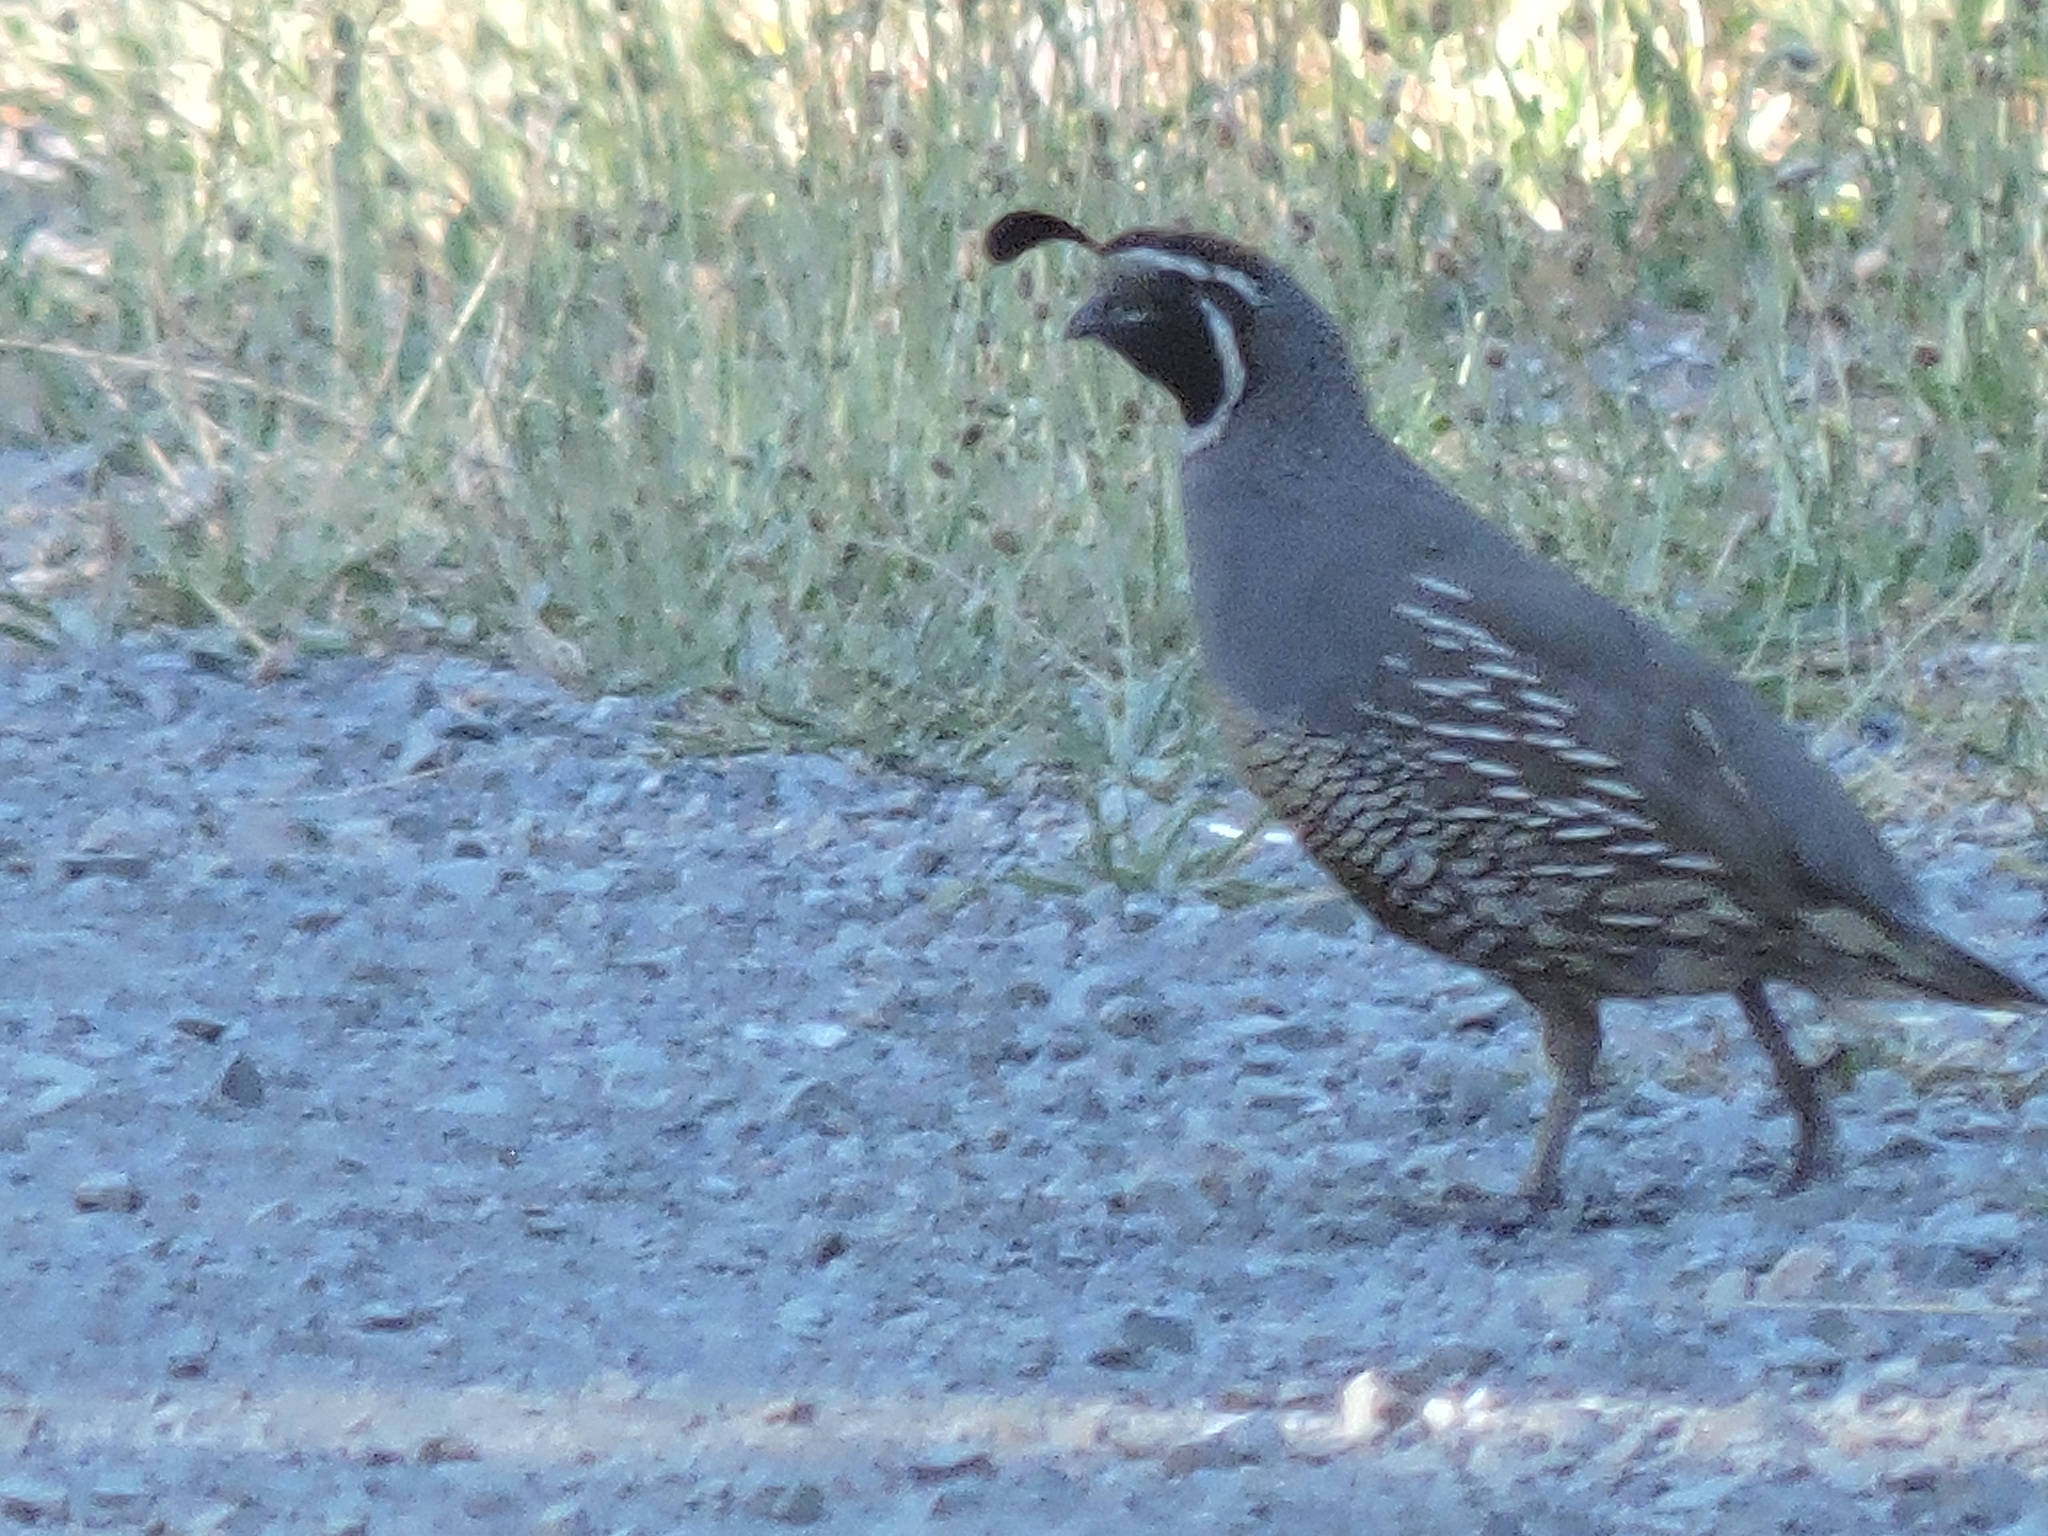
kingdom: Animalia
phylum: Chordata
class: Aves
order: Galliformes
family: Odontophoridae
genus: Callipepla
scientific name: Callipepla californica
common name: California quail
